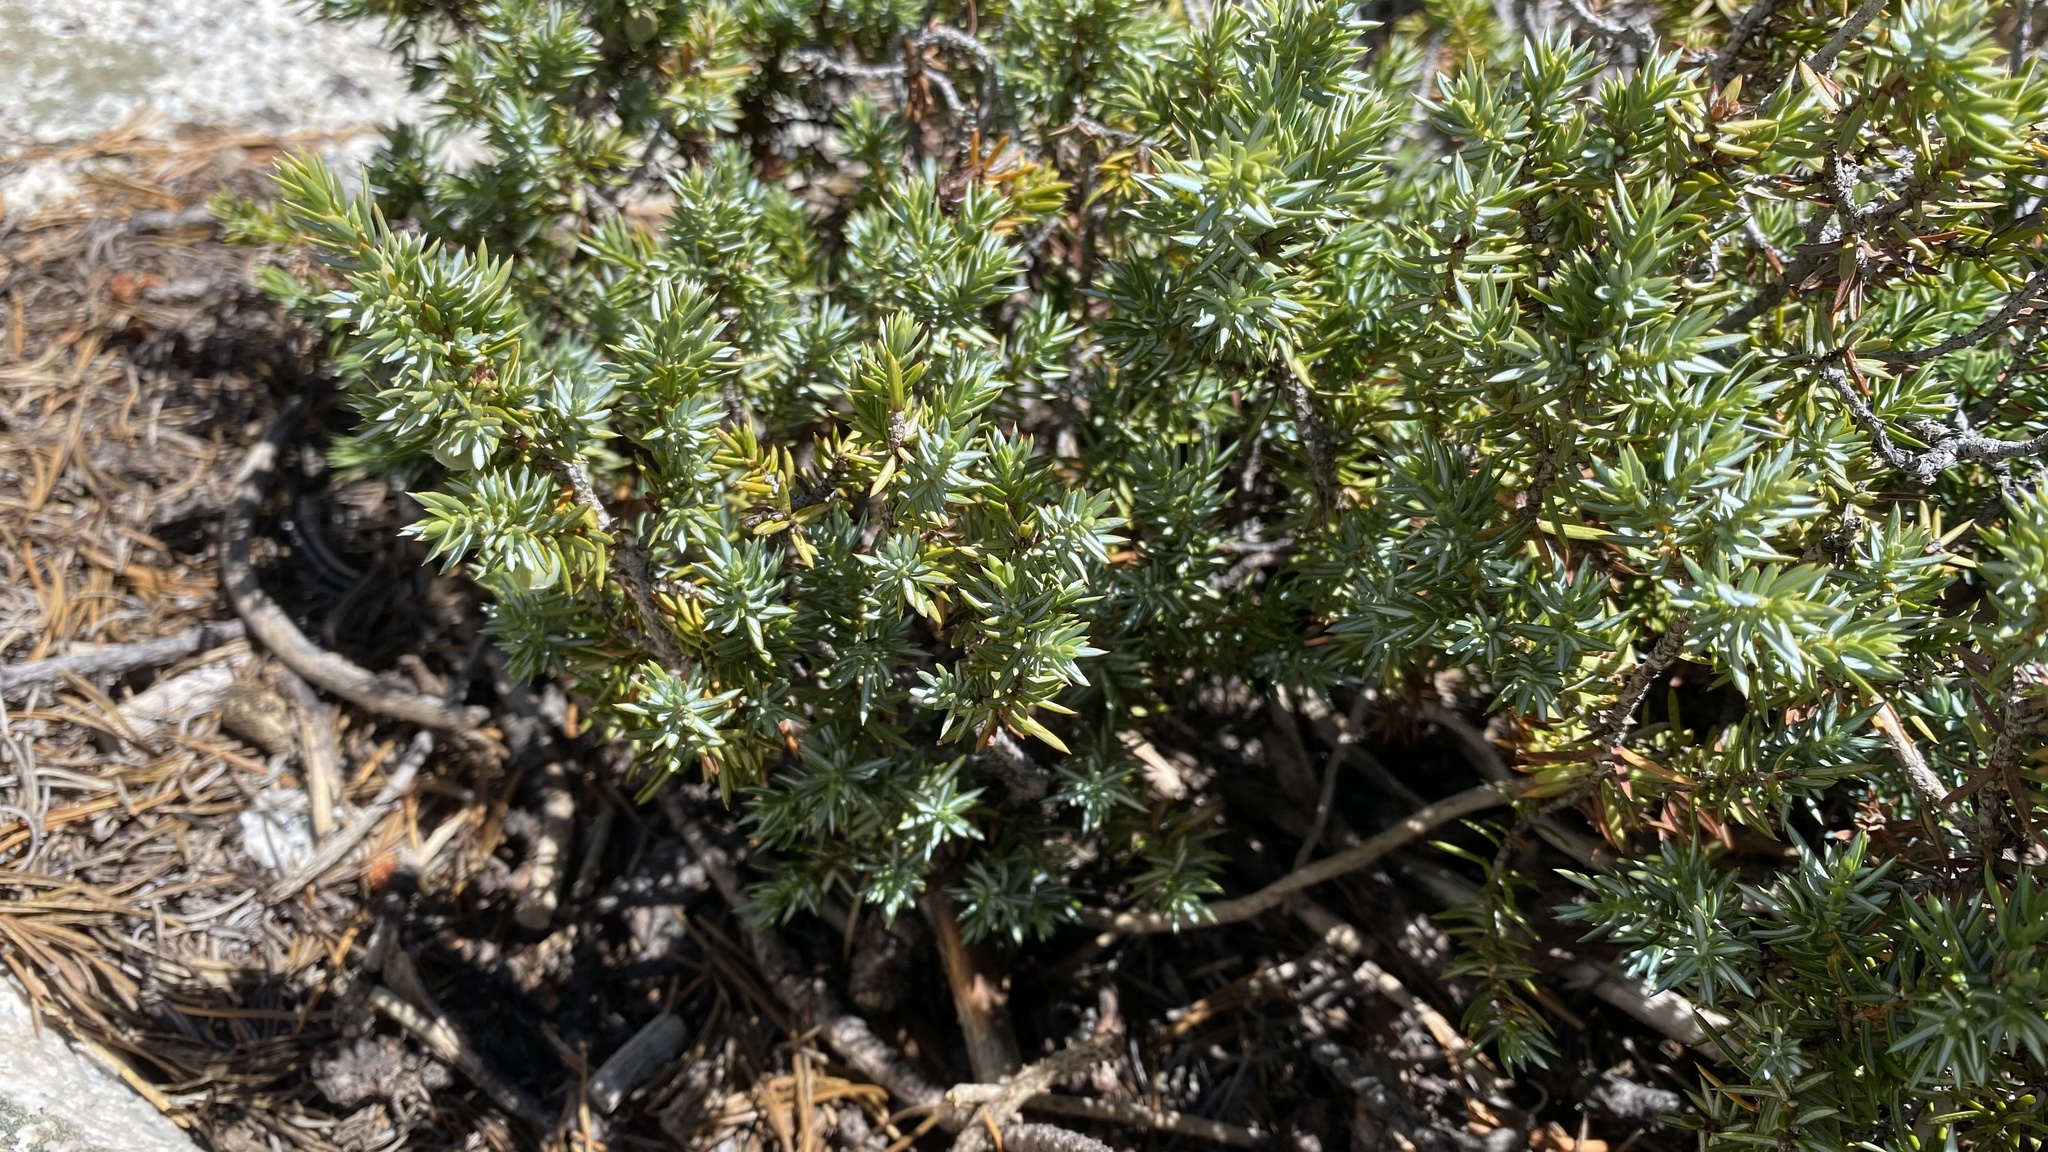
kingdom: Plantae
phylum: Tracheophyta
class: Pinopsida
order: Pinales
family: Cupressaceae
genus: Juniperus
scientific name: Juniperus communis
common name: Common juniper
